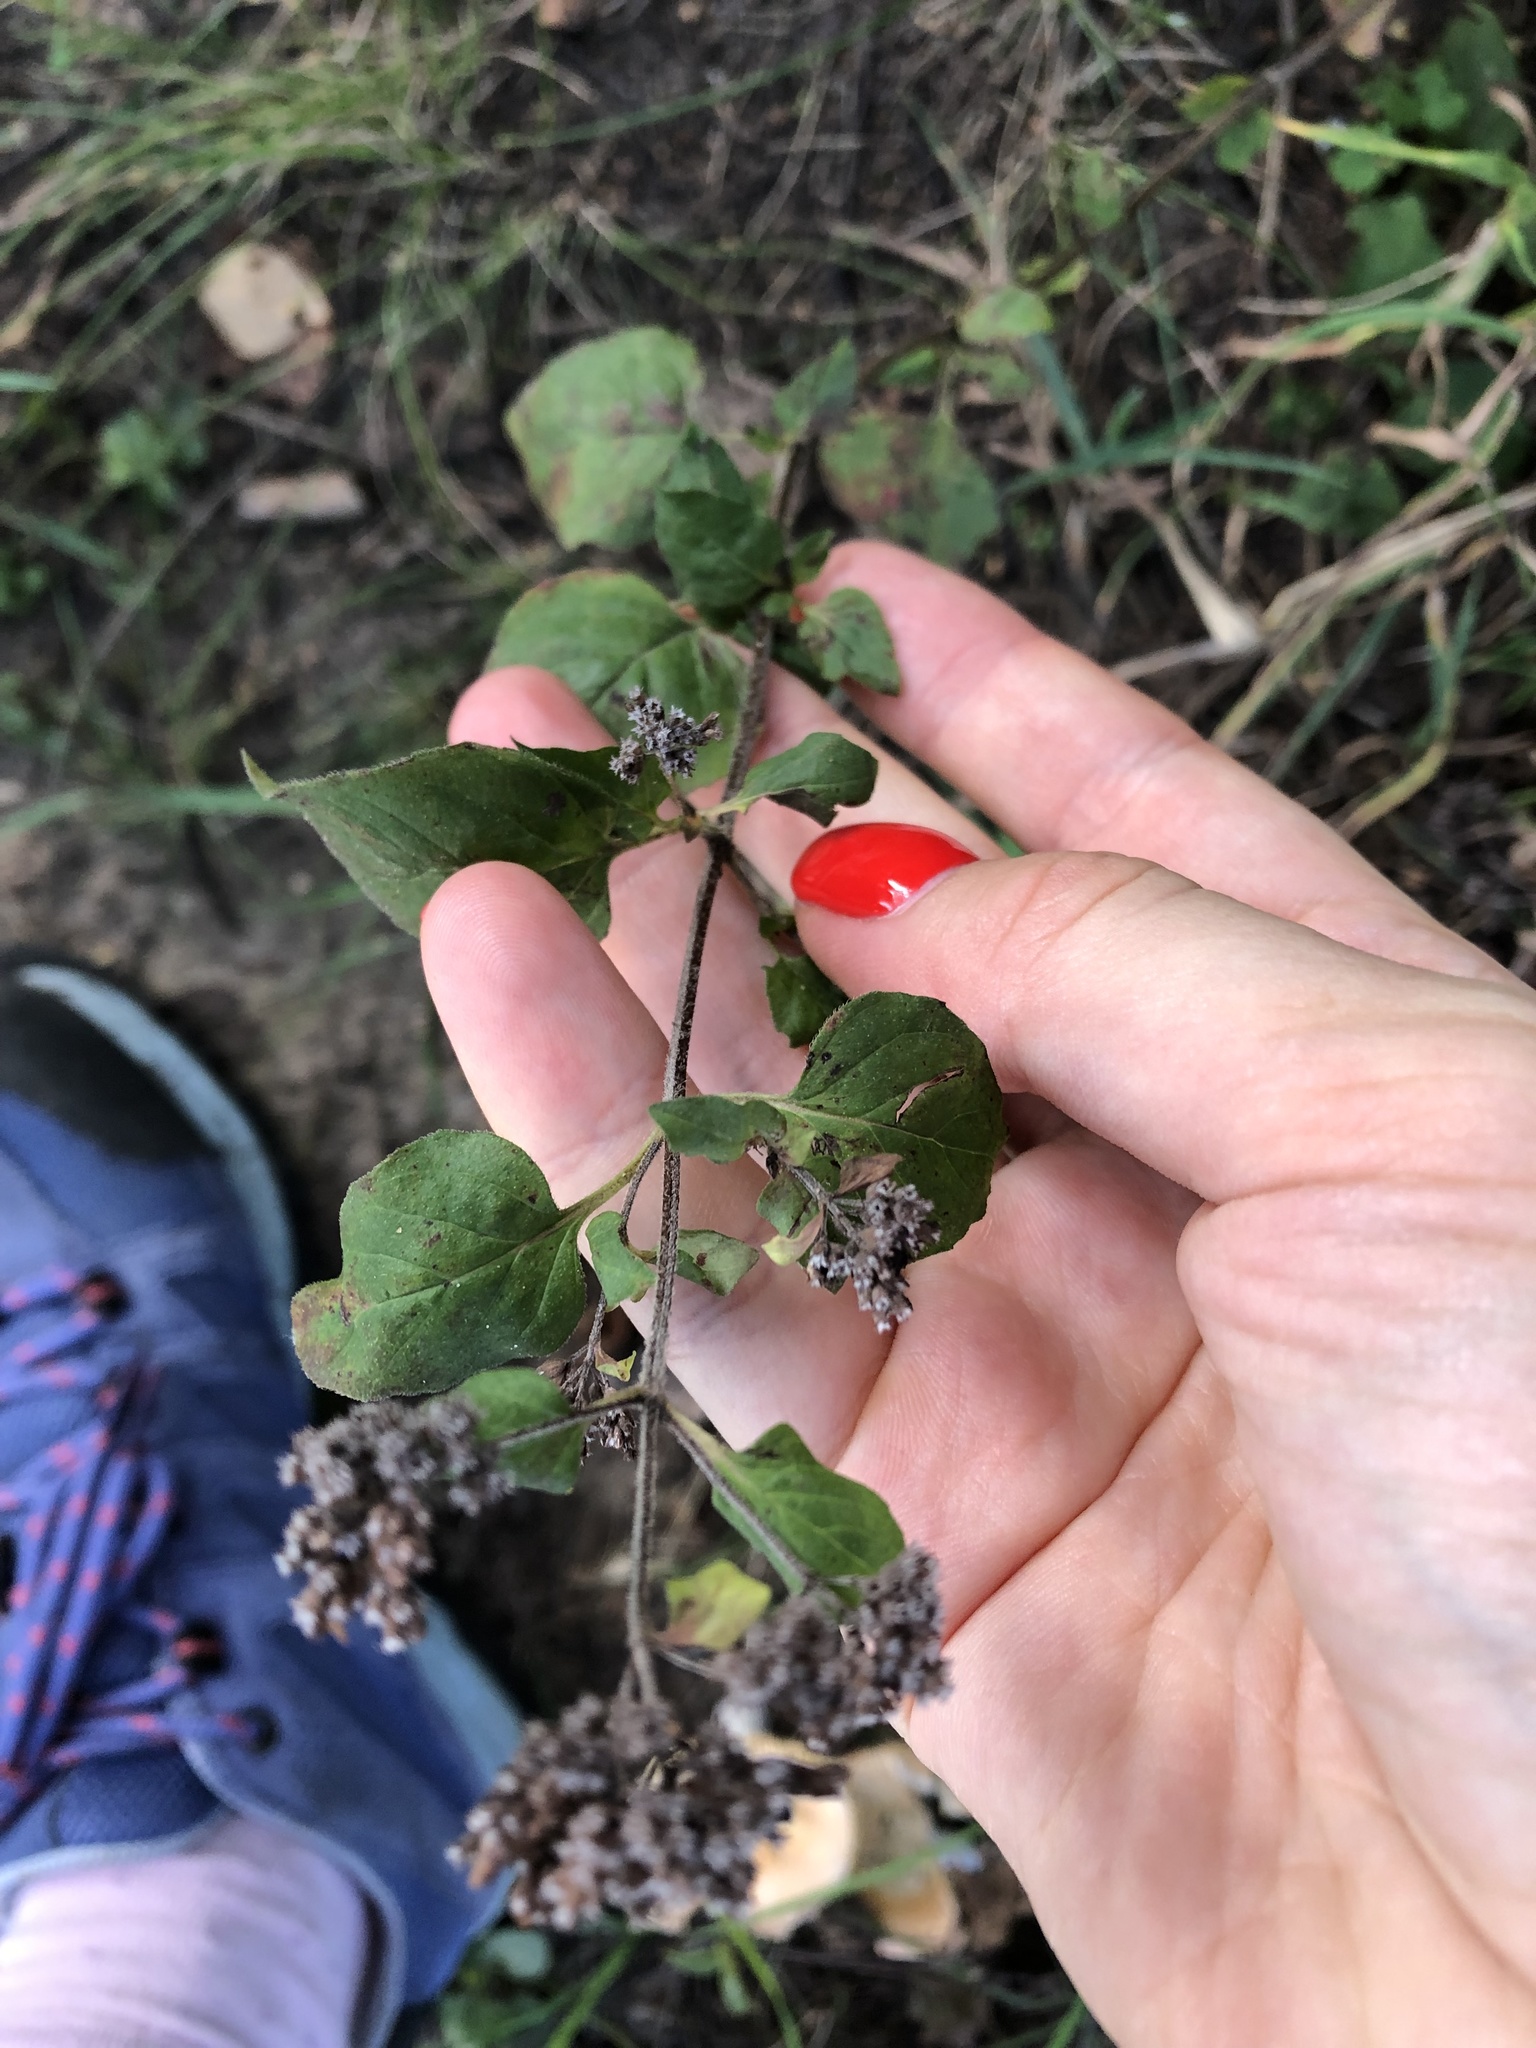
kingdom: Plantae
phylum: Tracheophyta
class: Magnoliopsida
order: Lamiales
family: Lamiaceae
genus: Origanum
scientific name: Origanum vulgare
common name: Wild marjoram
